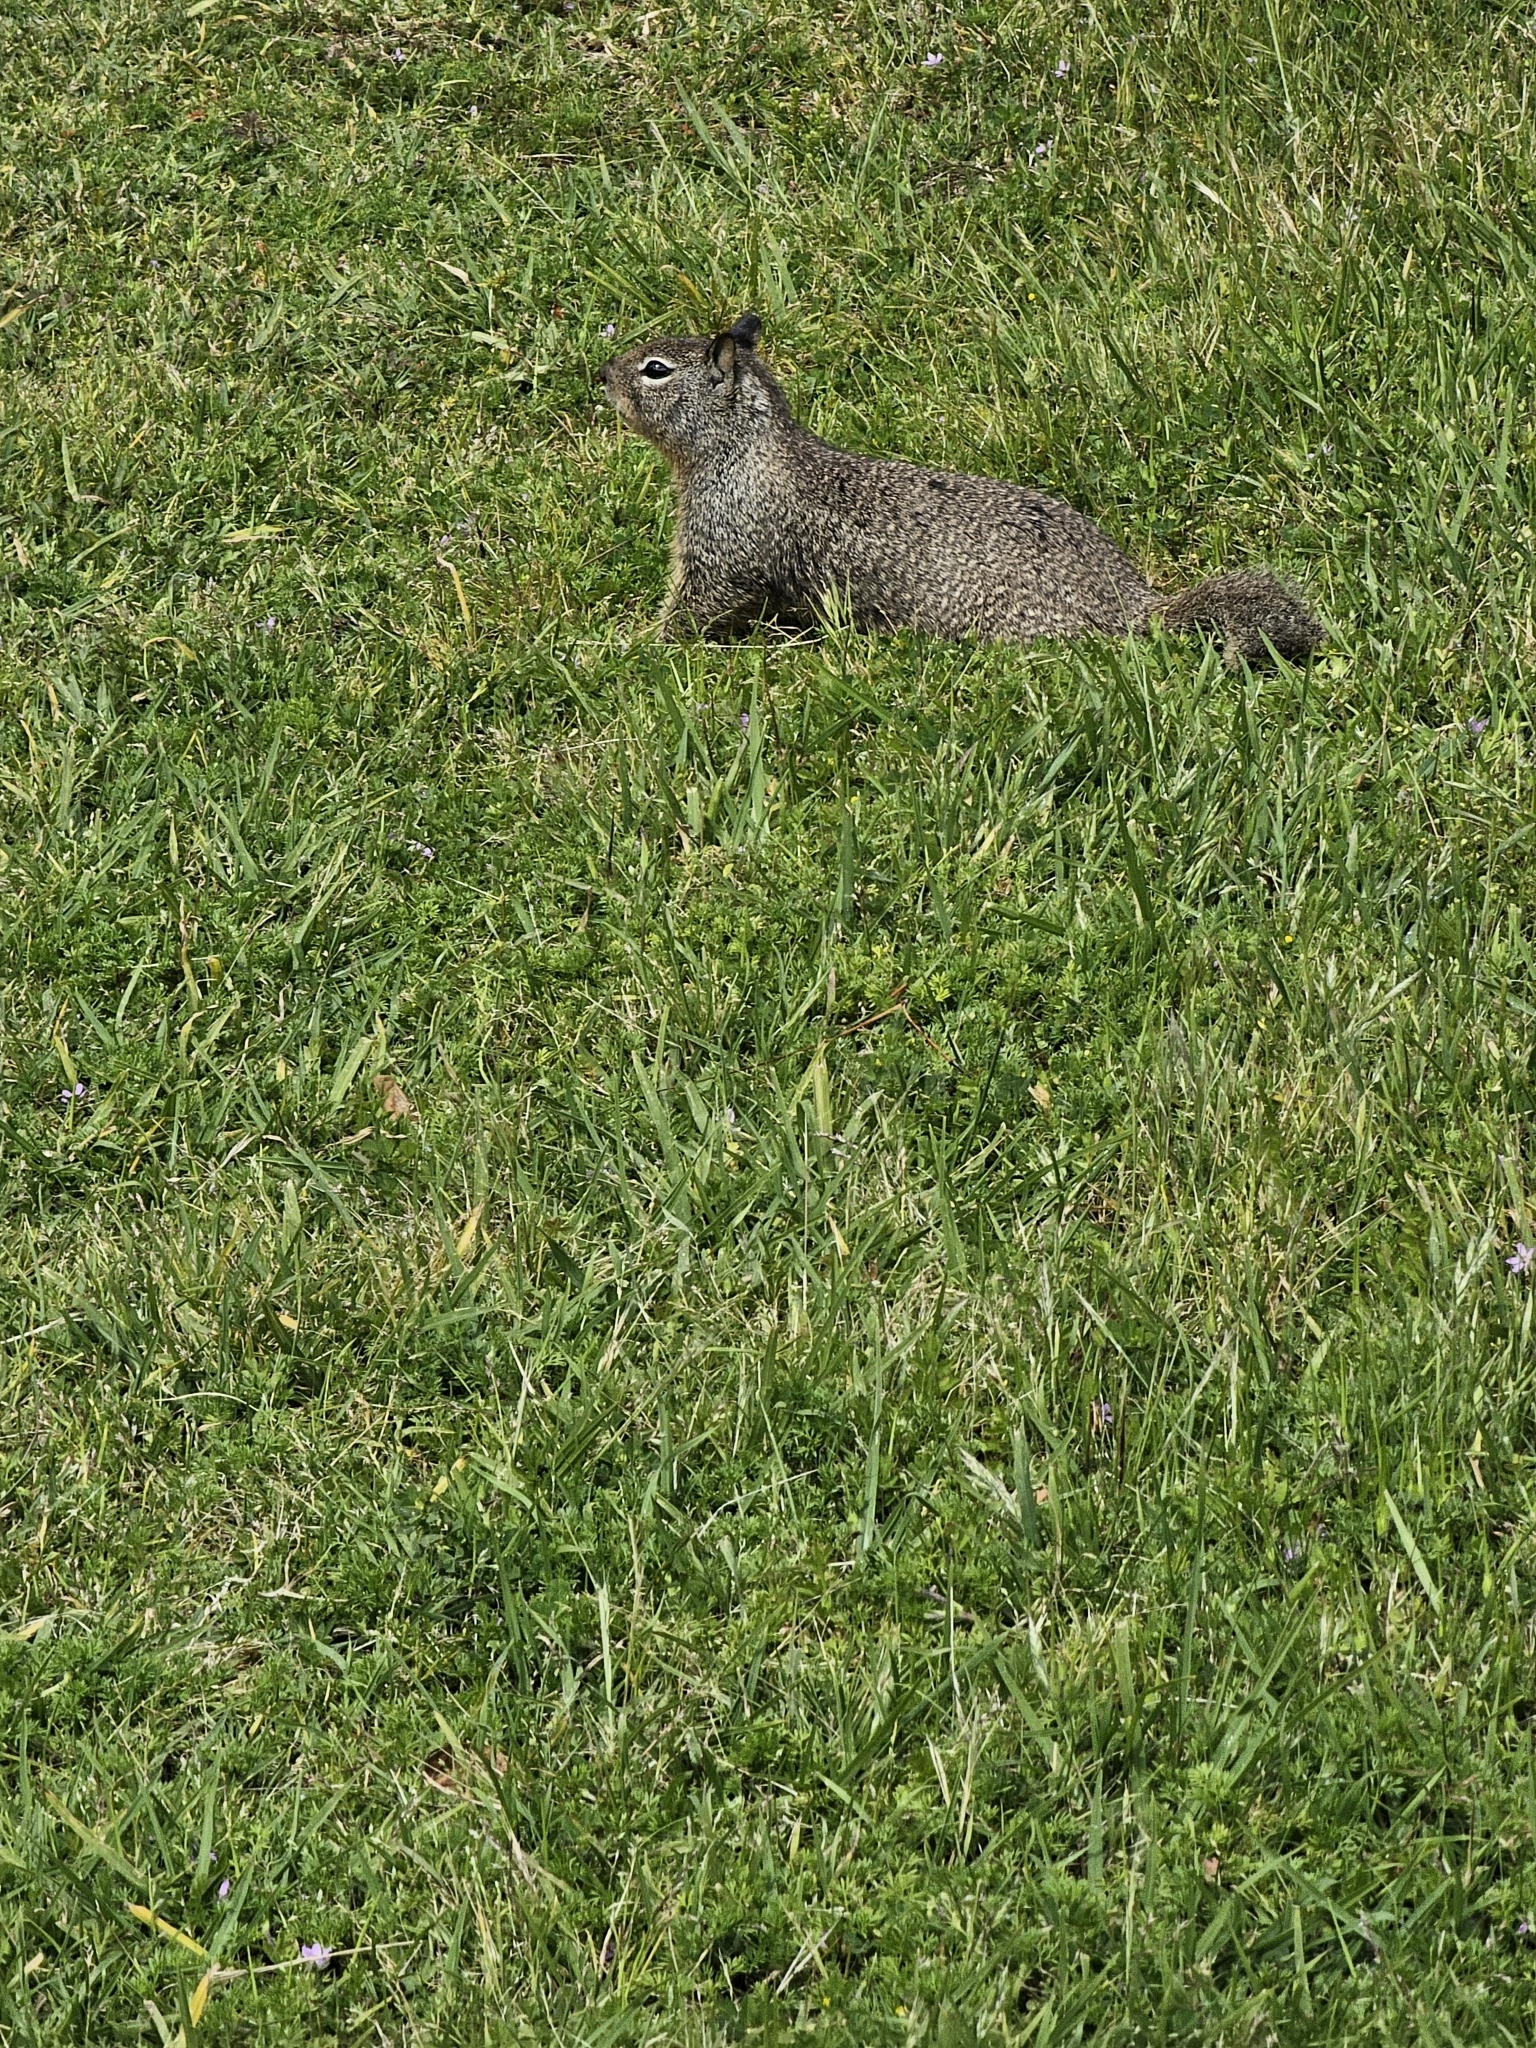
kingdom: Animalia
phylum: Chordata
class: Mammalia
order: Rodentia
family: Sciuridae
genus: Otospermophilus
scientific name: Otospermophilus beecheyi
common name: California ground squirrel
